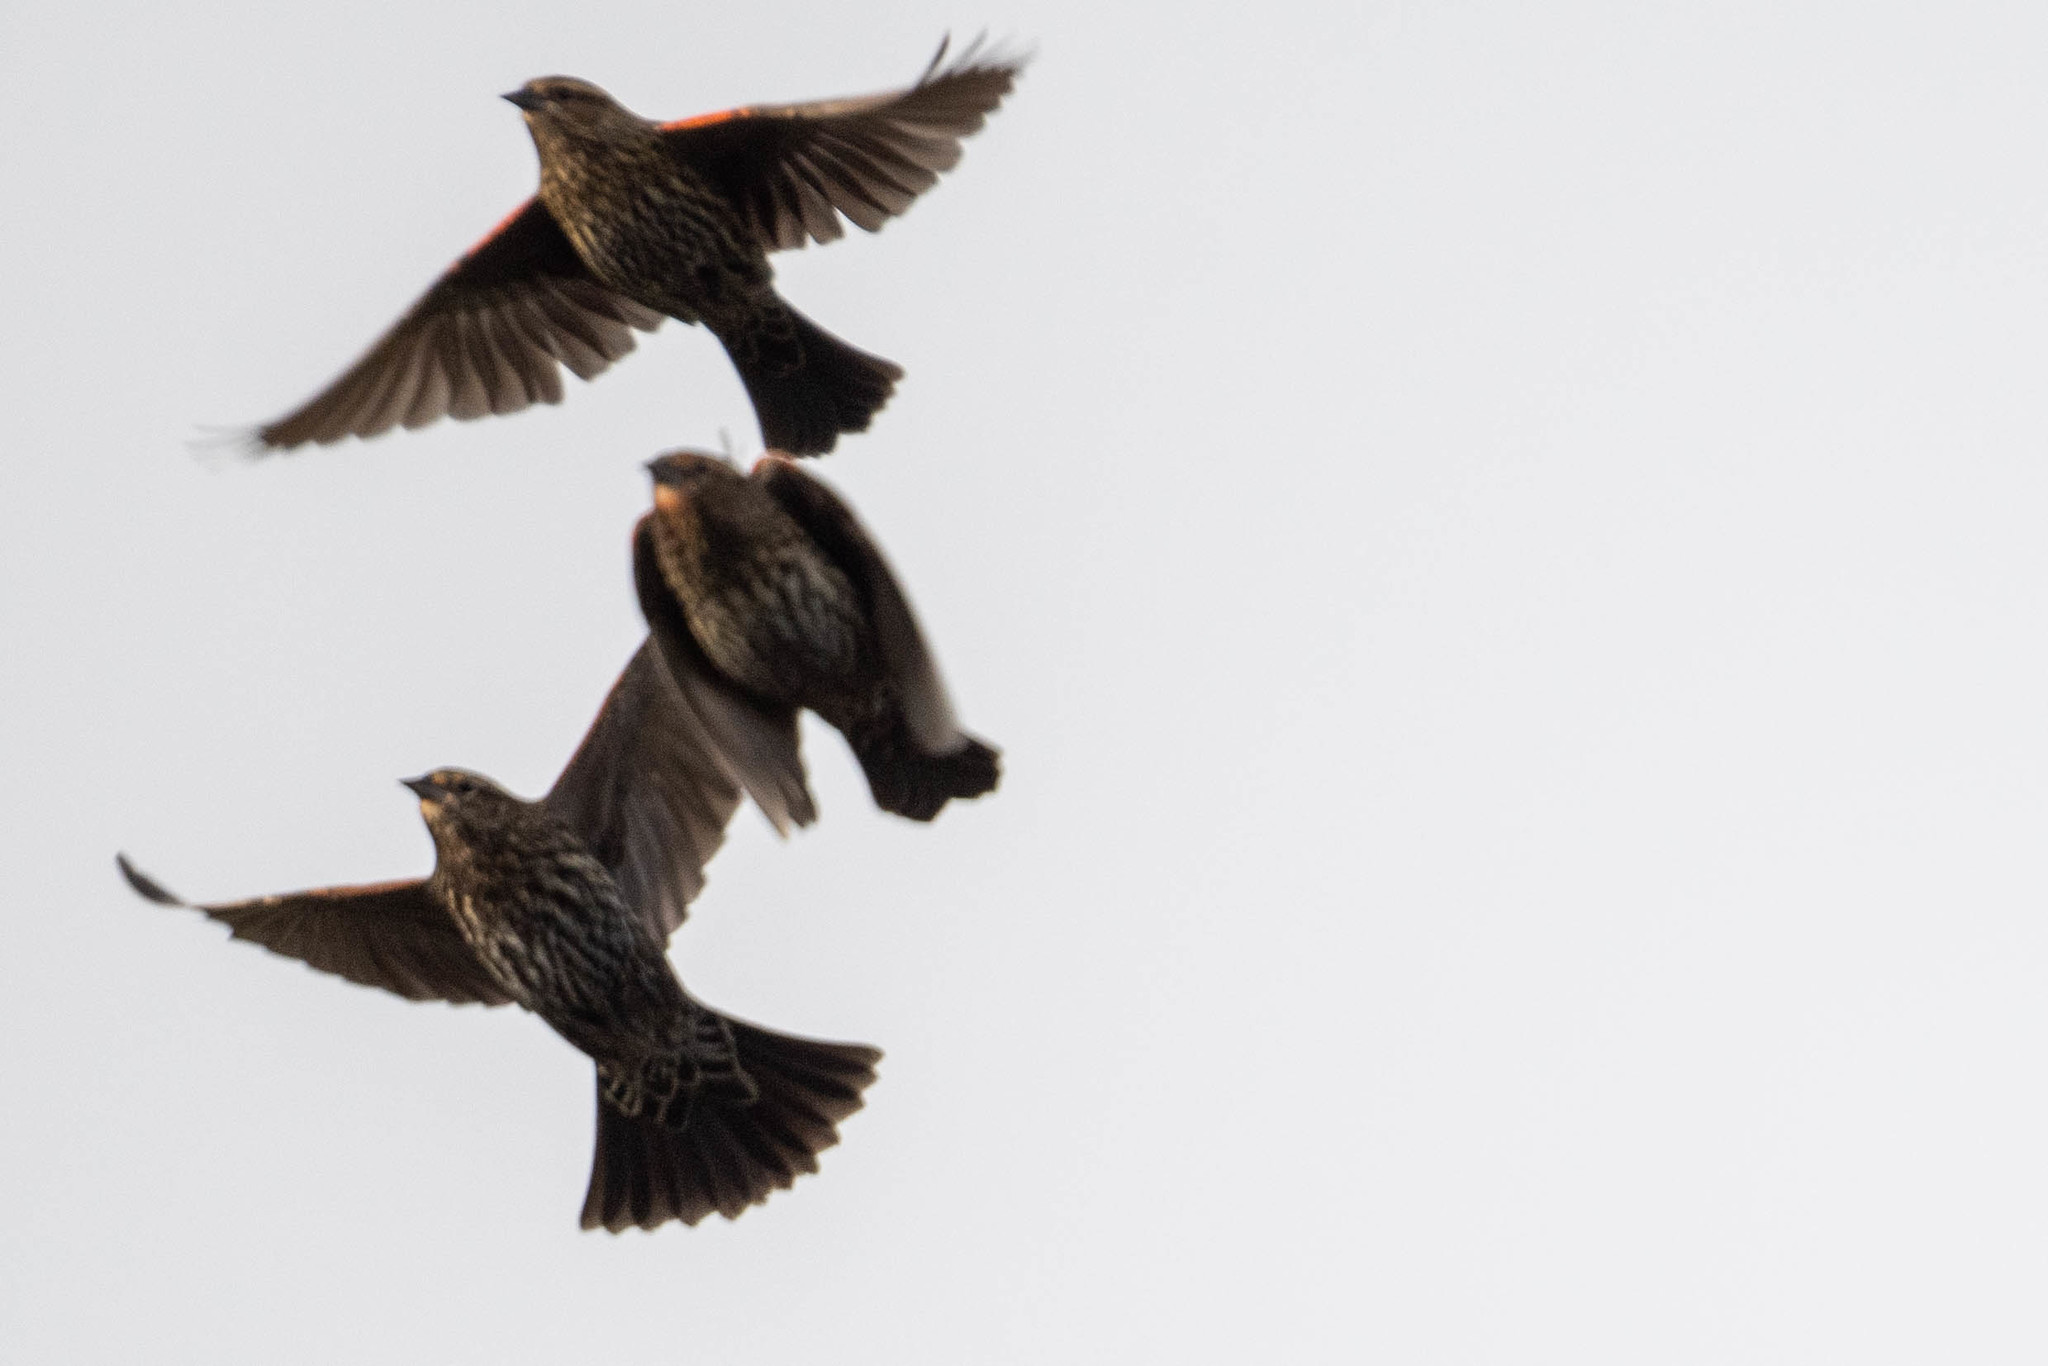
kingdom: Animalia
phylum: Chordata
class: Aves
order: Passeriformes
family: Icteridae
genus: Agelaius
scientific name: Agelaius phoeniceus
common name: Red-winged blackbird
